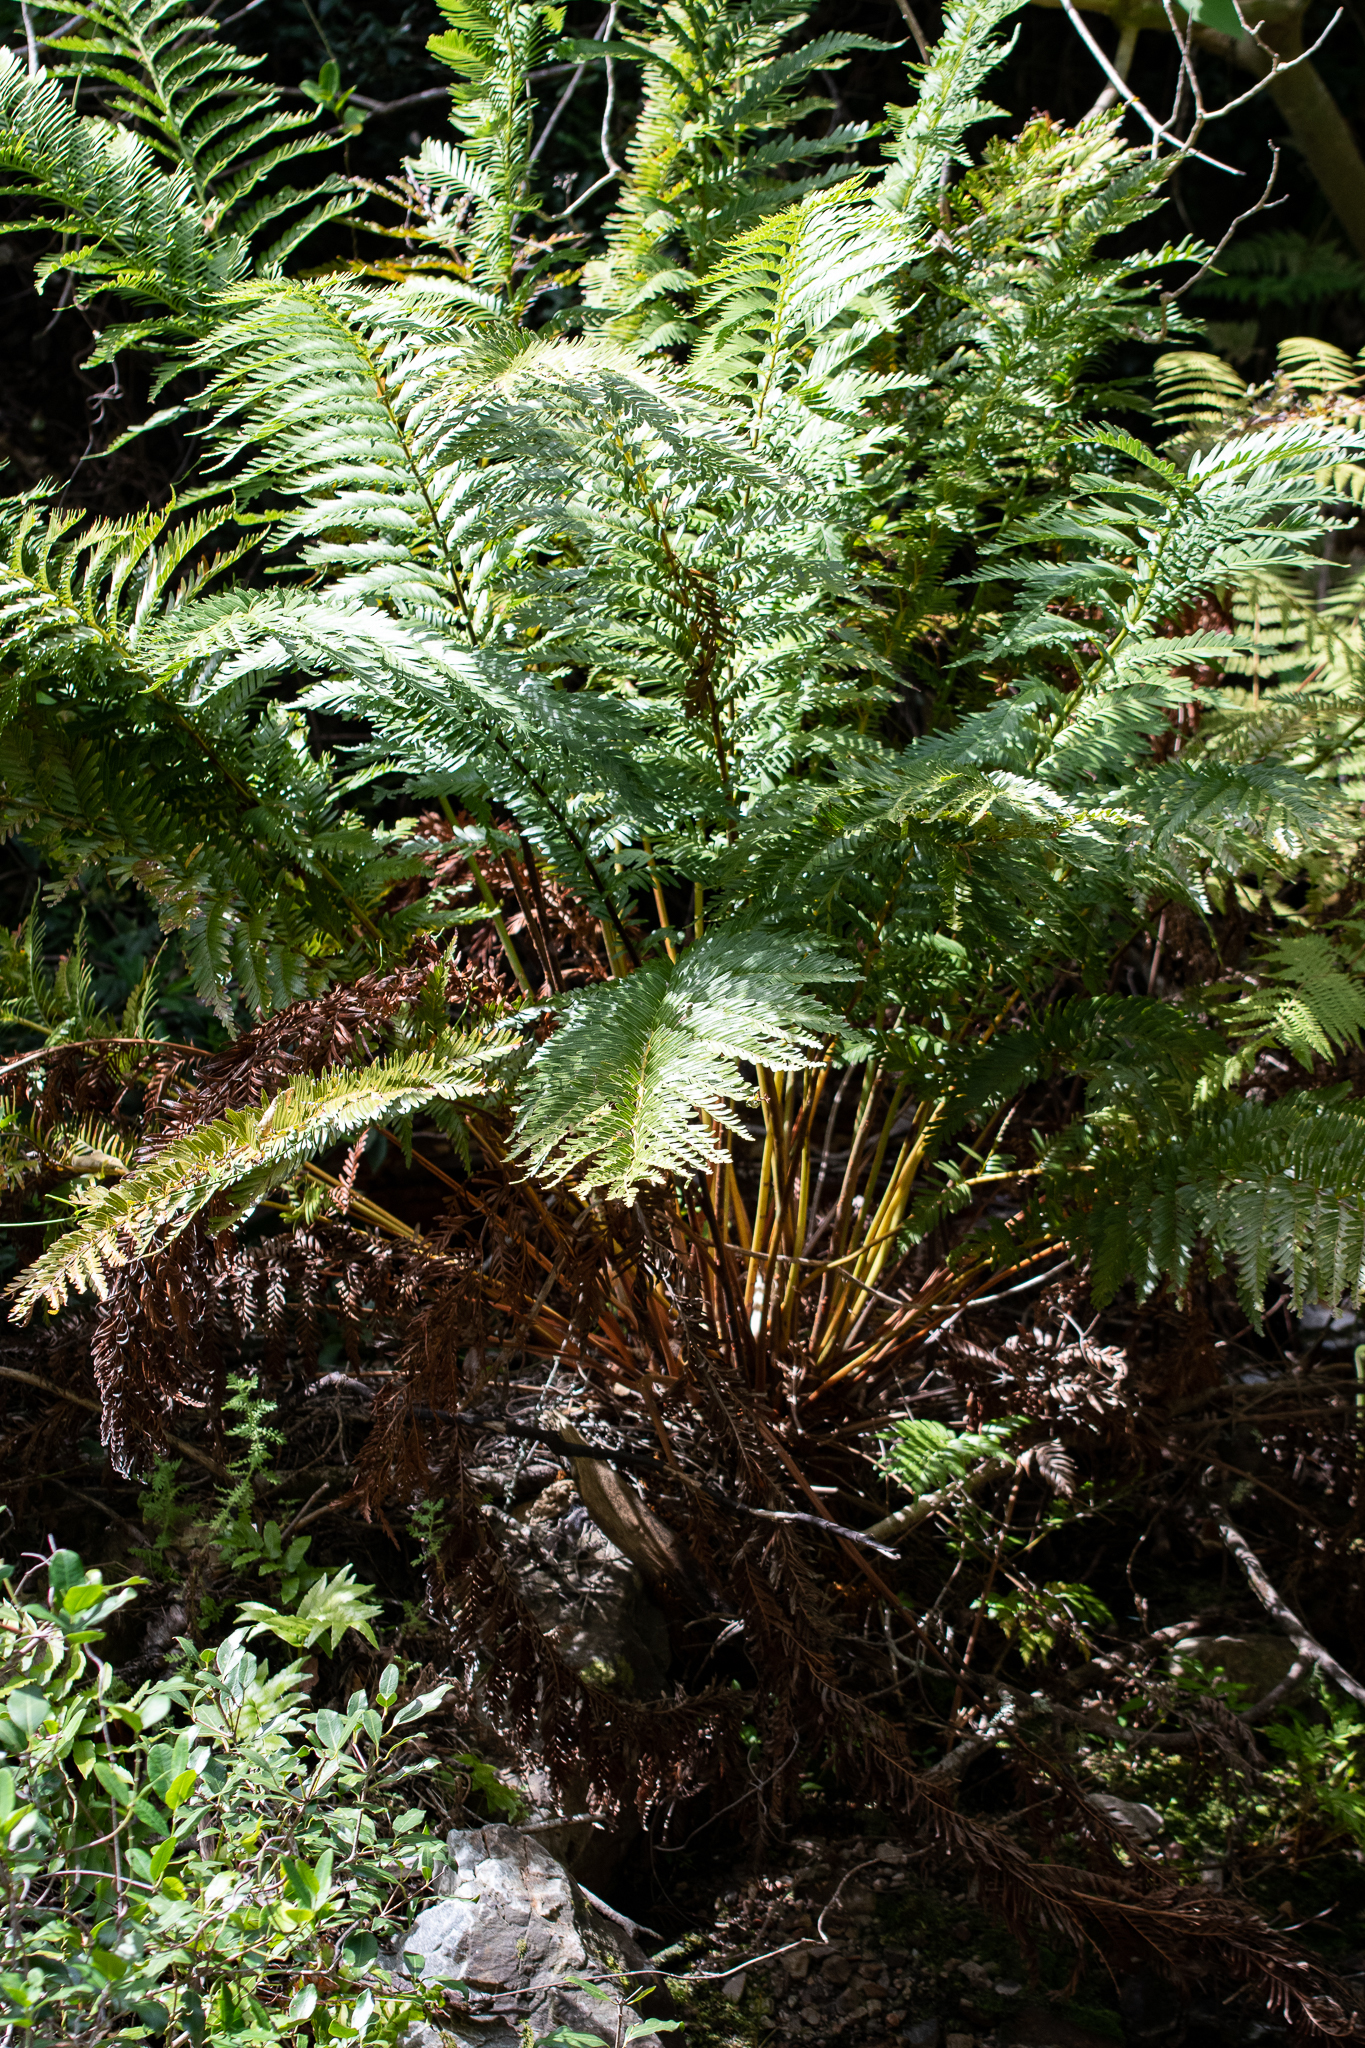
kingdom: Plantae
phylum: Tracheophyta
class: Polypodiopsida
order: Osmundales
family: Osmundaceae
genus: Todea
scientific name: Todea barbara
